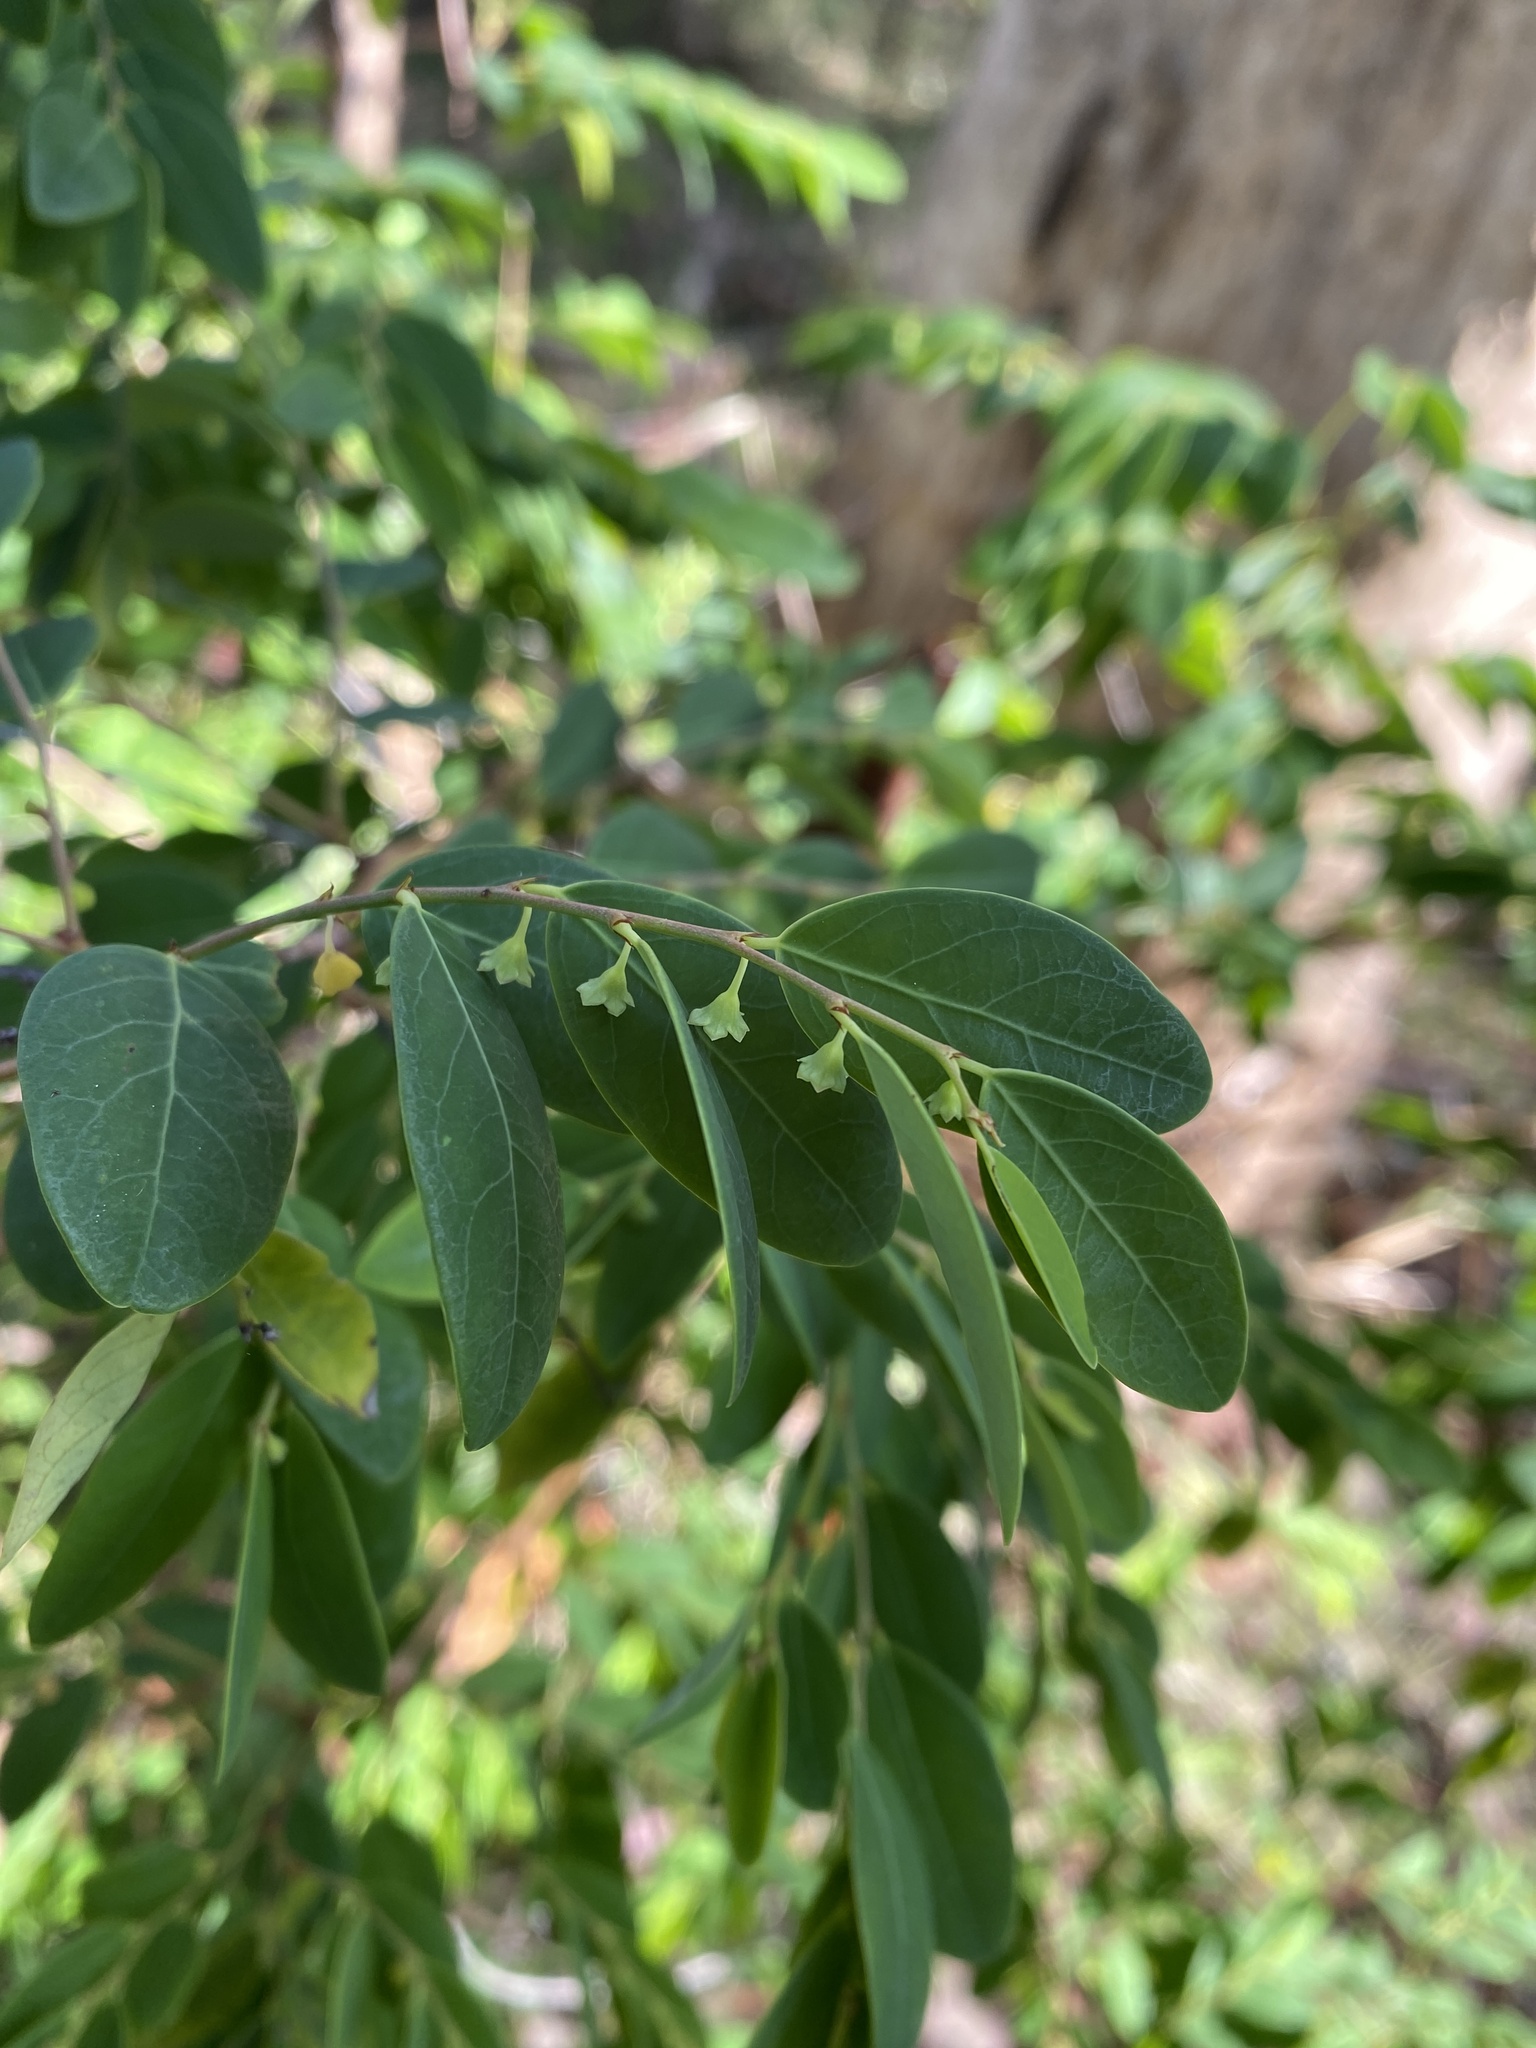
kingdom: Plantae
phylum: Tracheophyta
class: Magnoliopsida
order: Malpighiales
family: Phyllanthaceae
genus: Breynia
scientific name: Breynia oblongifolia
